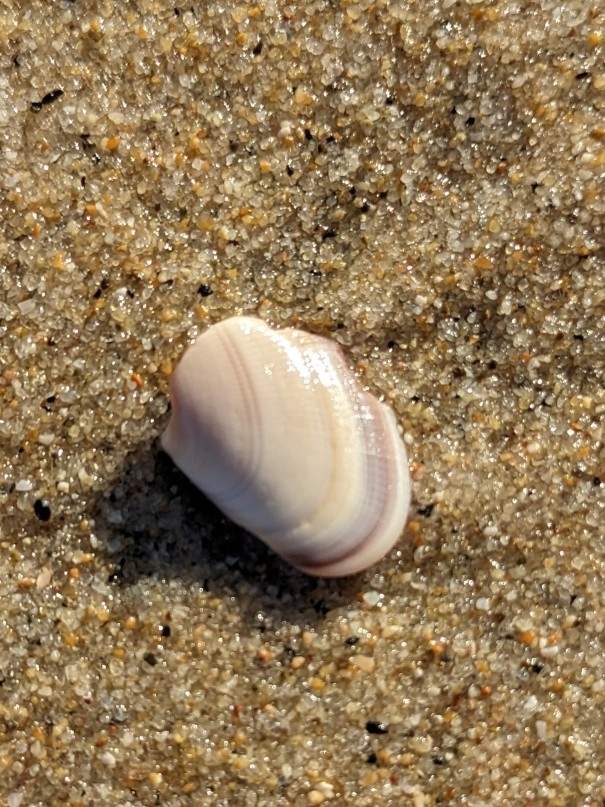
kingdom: Animalia
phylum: Mollusca
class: Bivalvia
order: Cardiida
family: Donacidae
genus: Donax
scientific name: Donax gouldii
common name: Gould beanclam
